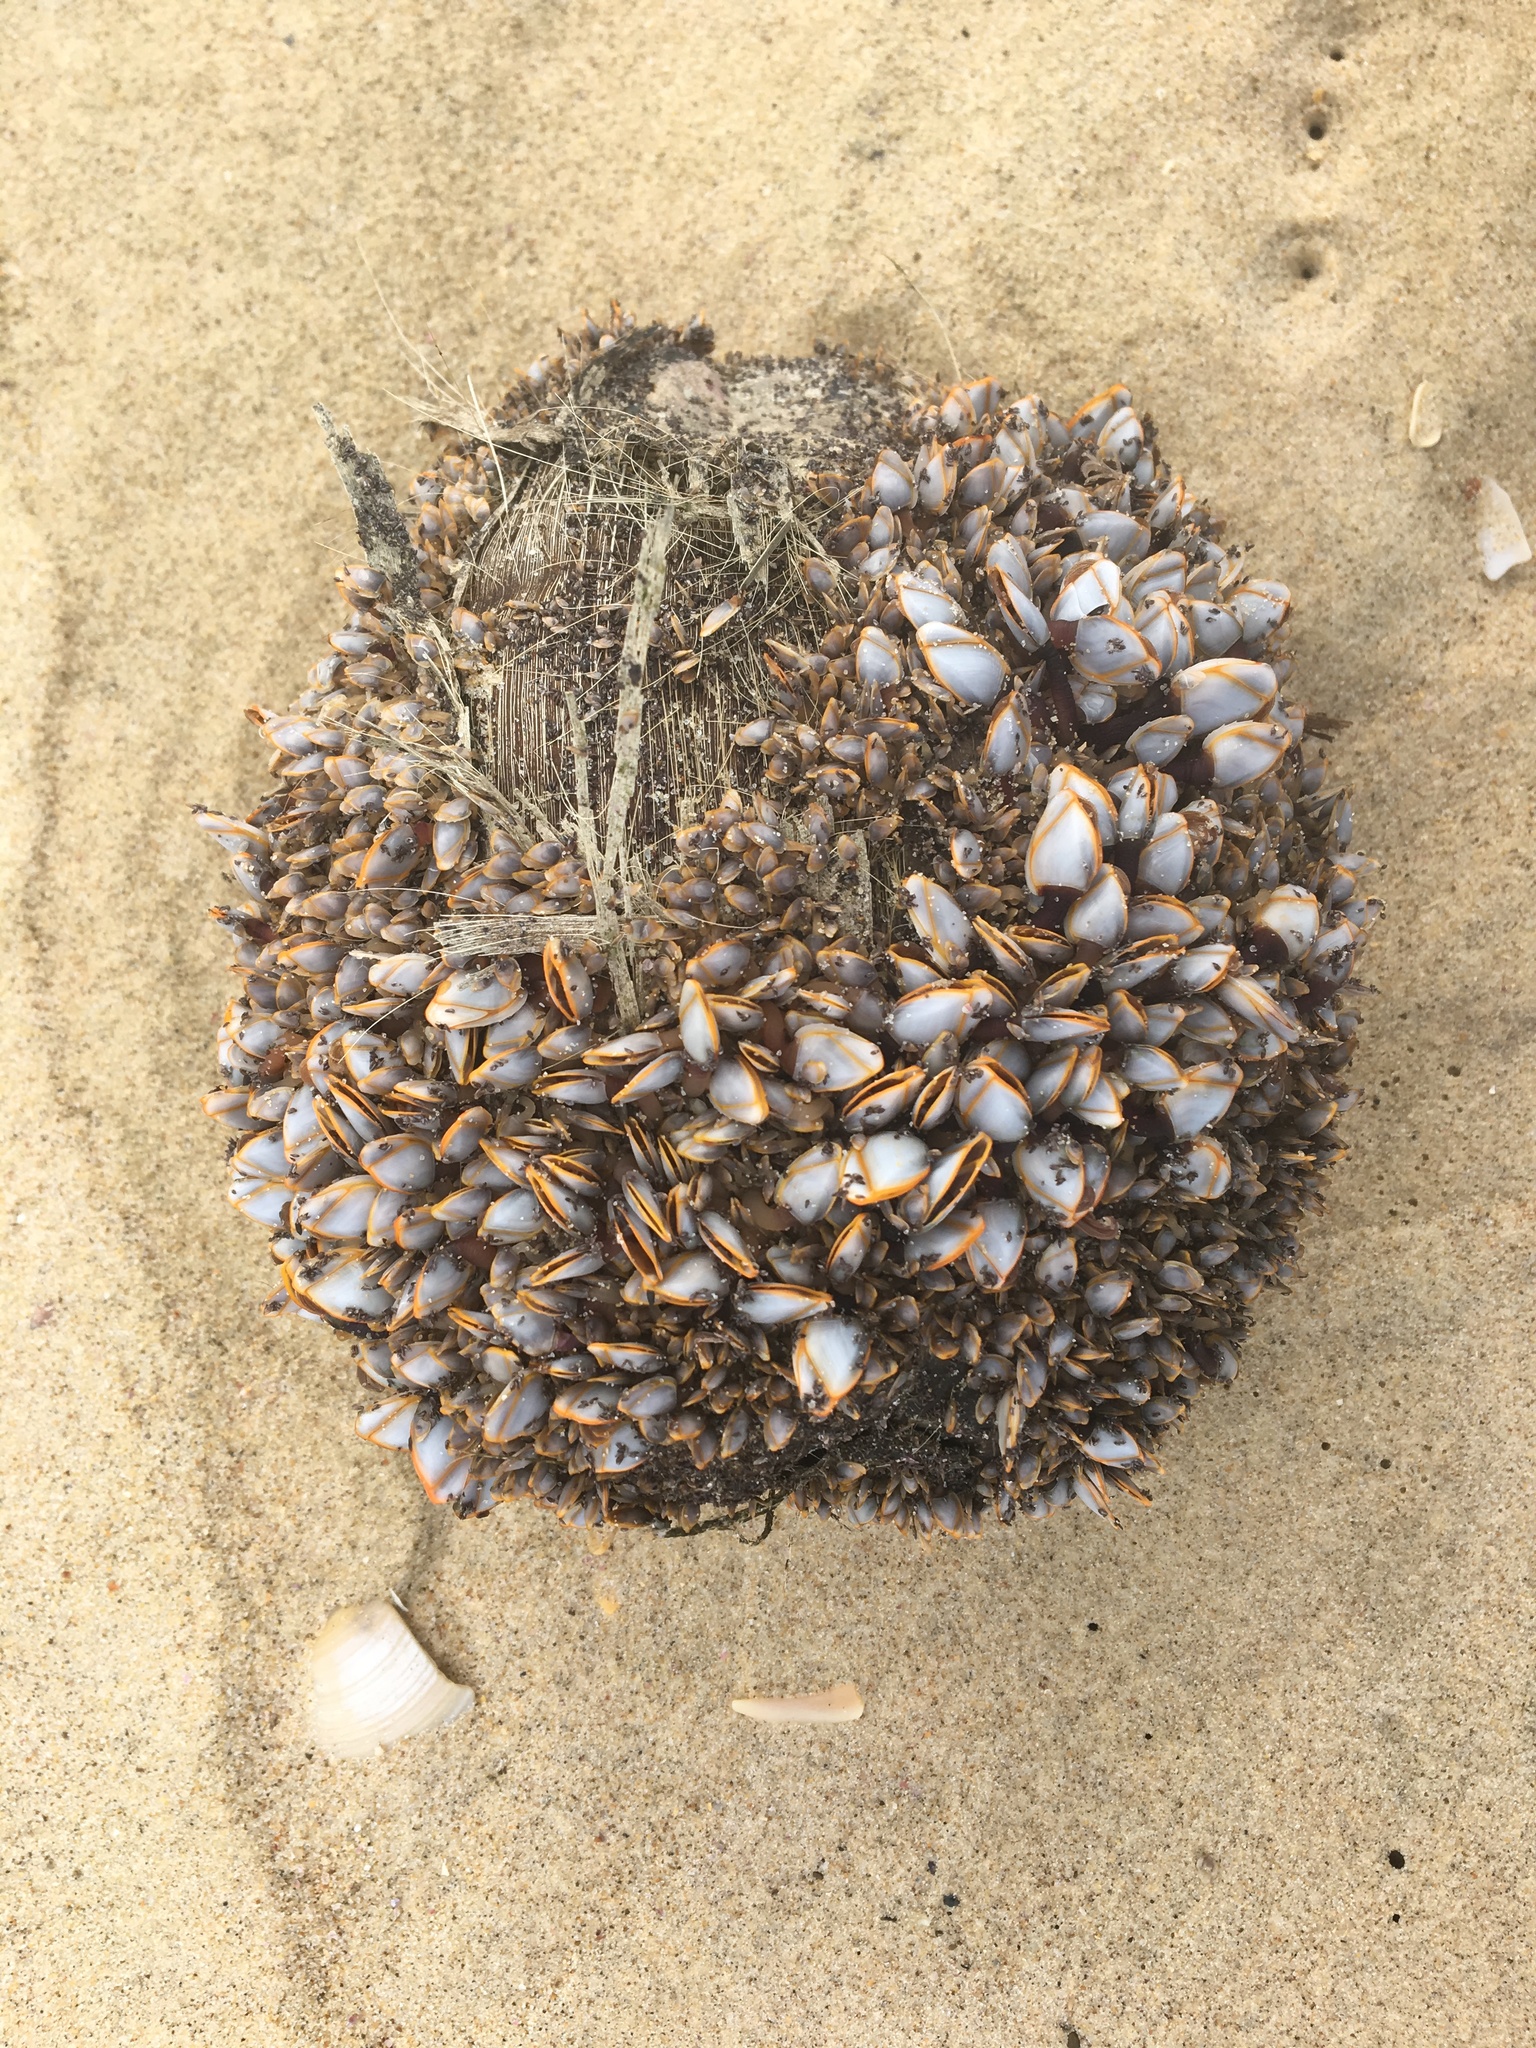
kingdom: Animalia
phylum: Arthropoda
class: Maxillopoda
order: Pedunculata
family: Lepadidae
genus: Lepas
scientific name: Lepas anserifera
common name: Goose barnacle
